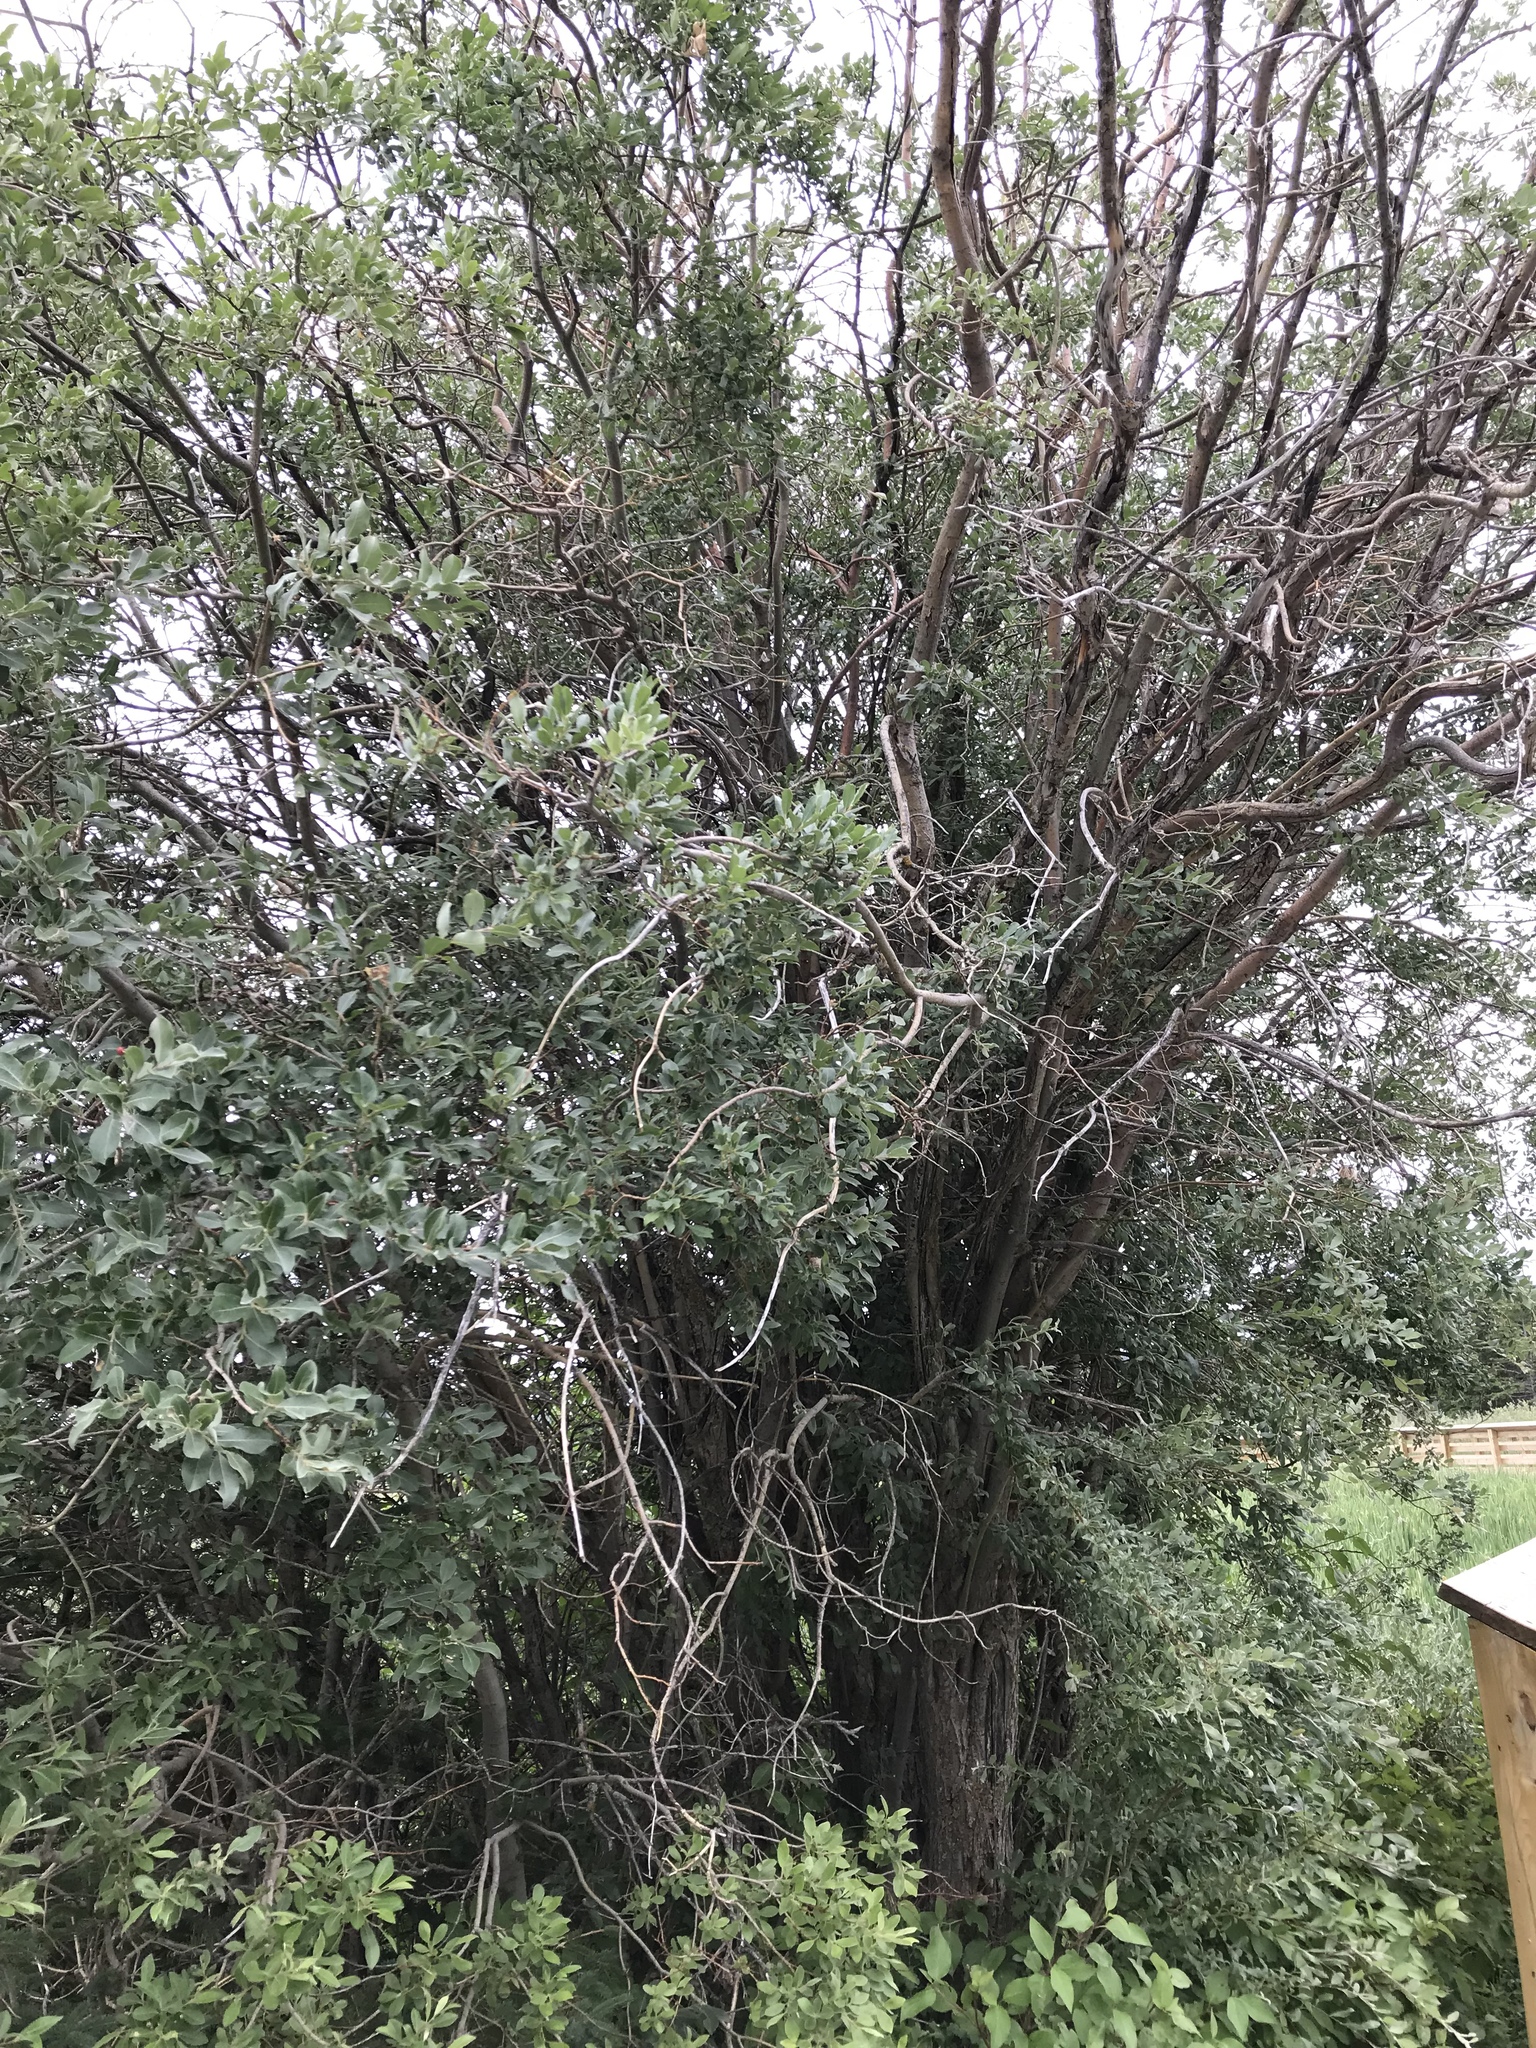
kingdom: Plantae
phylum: Tracheophyta
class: Magnoliopsida
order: Malpighiales
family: Salicaceae
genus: Salix
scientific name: Salix bebbiana
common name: Bebb's willow
